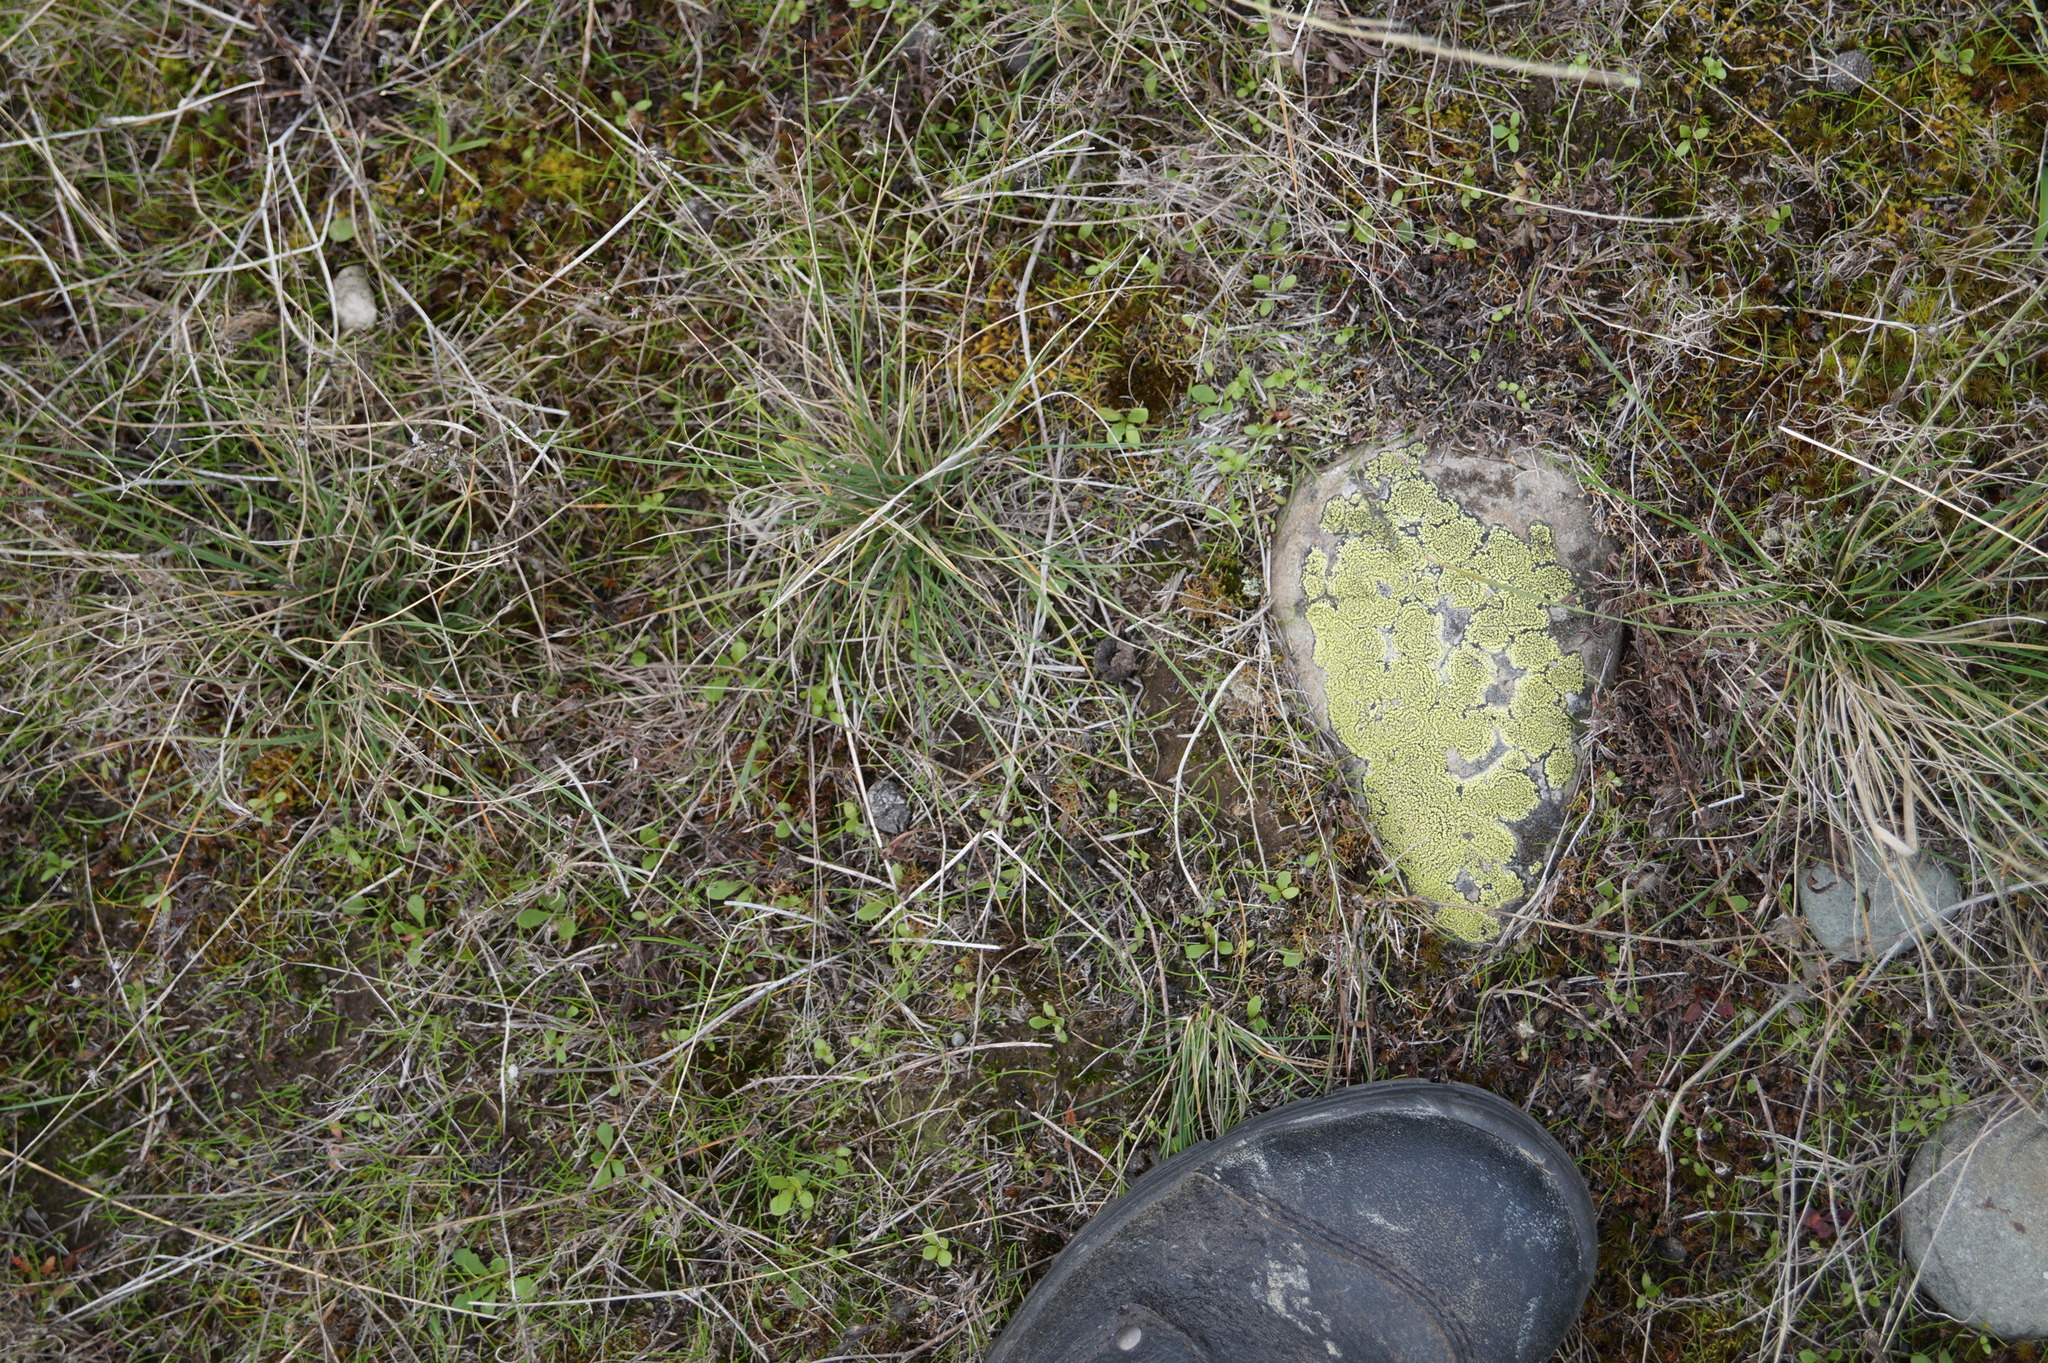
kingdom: Fungi
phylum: Ascomycota
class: Lecanoromycetes
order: Rhizocarpales
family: Rhizocarpaceae
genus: Rhizocarpon
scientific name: Rhizocarpon geographicum
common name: Yellow map lichen
